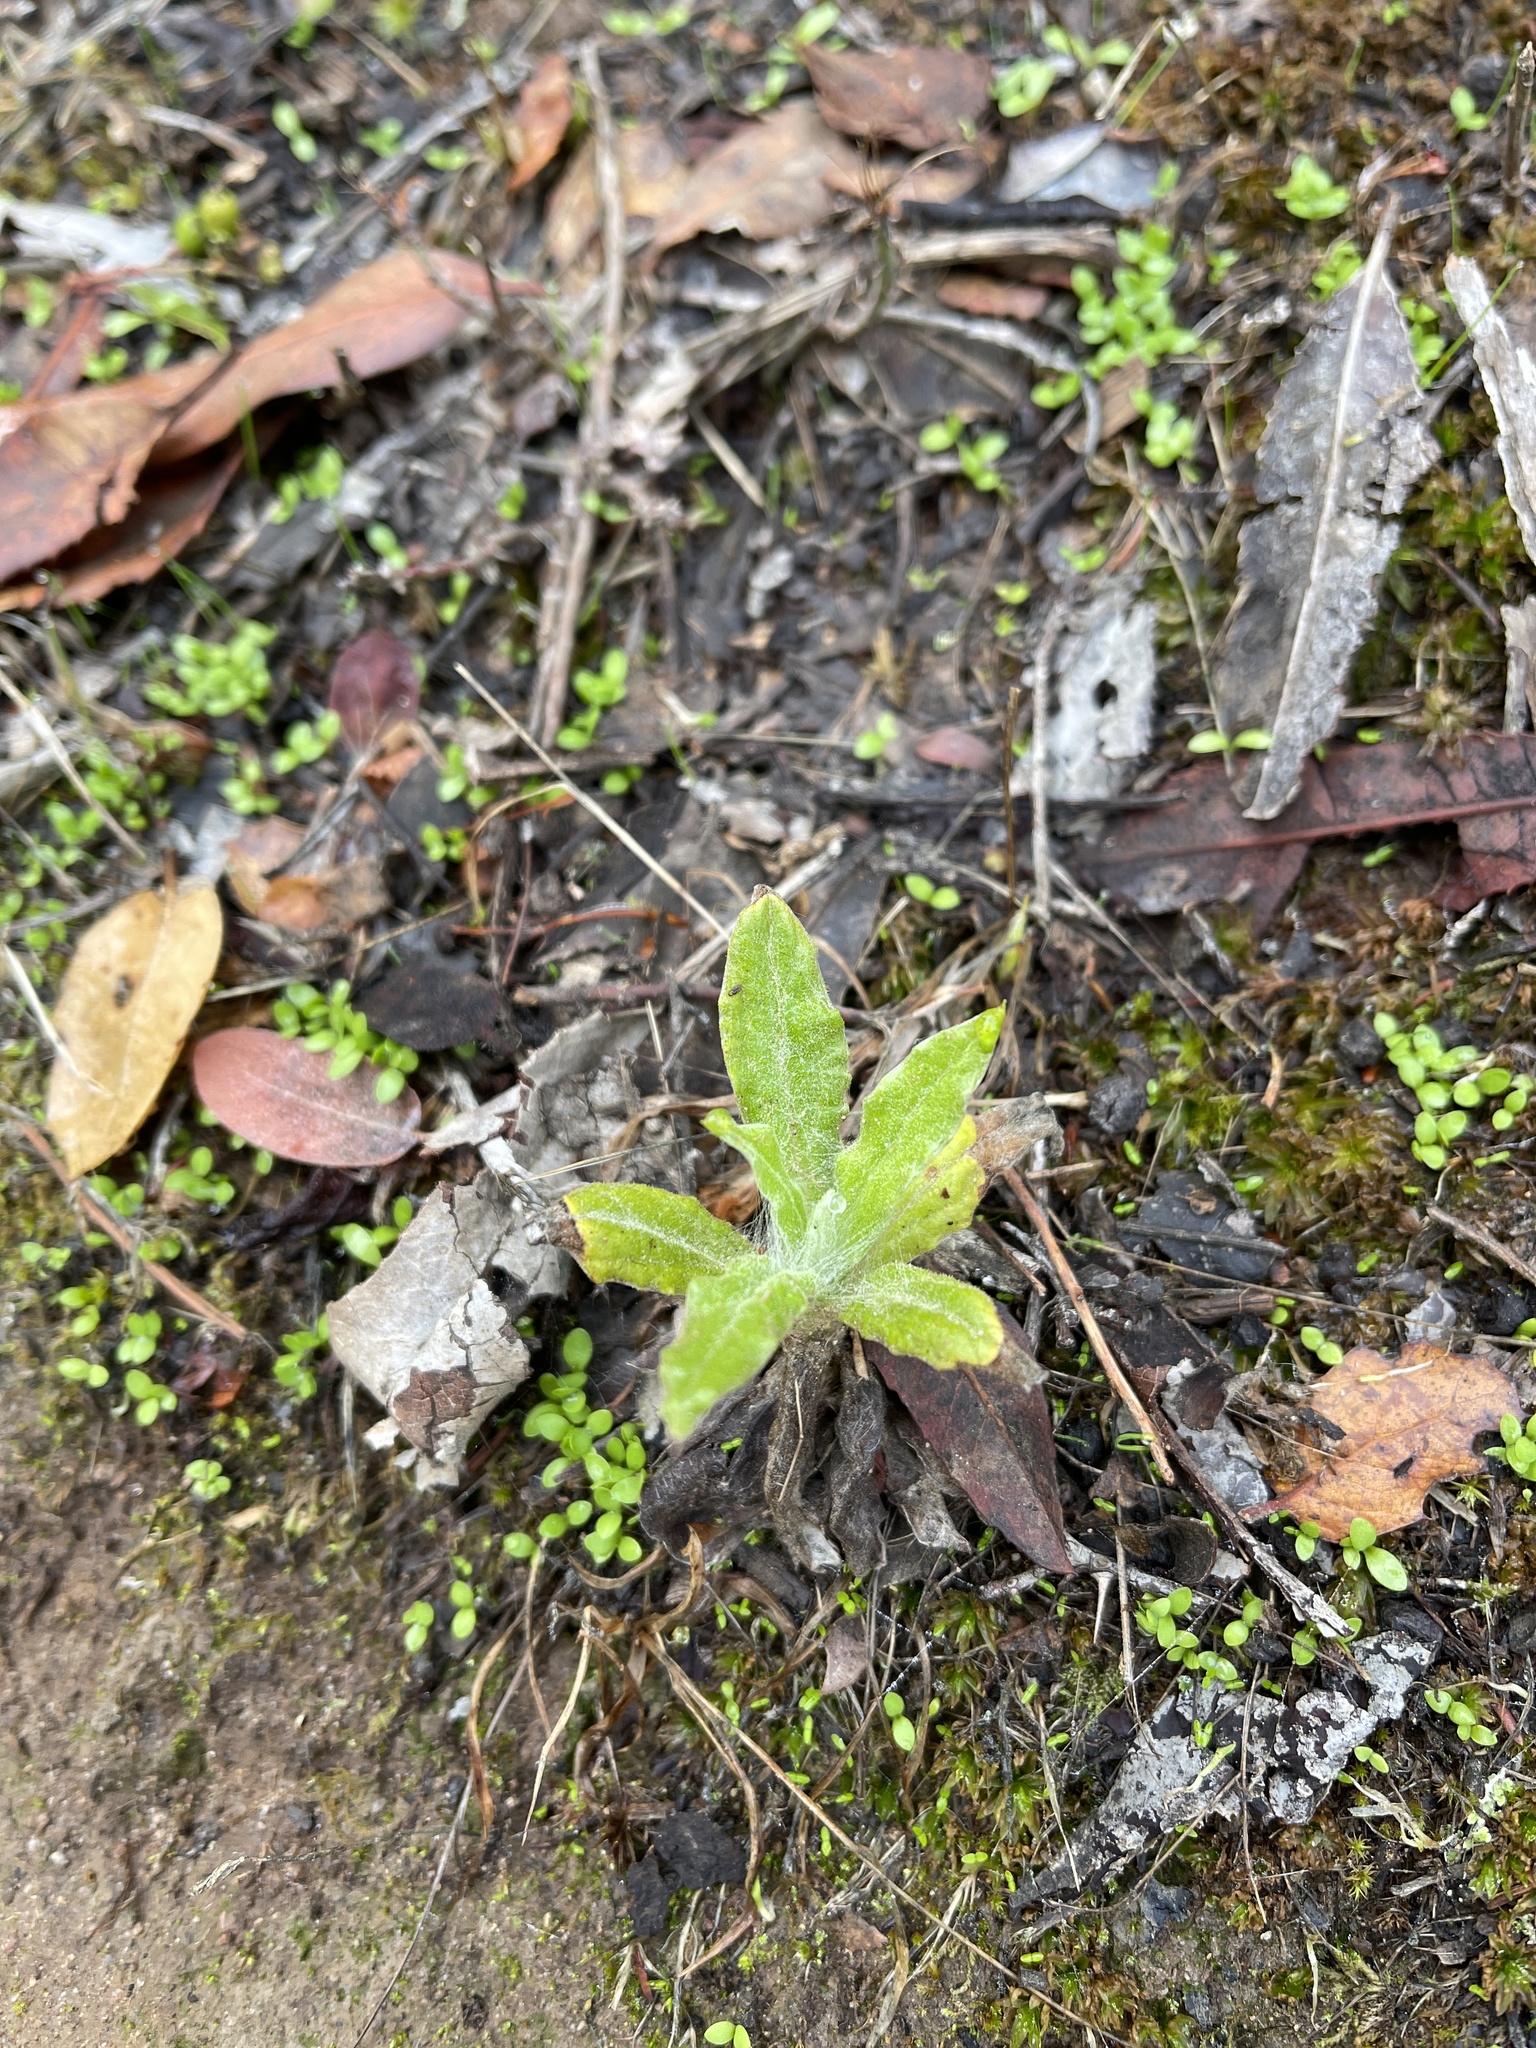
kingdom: Plantae
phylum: Tracheophyta
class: Magnoliopsida
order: Asterales
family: Asteraceae
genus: Pseudognaphalium
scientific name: Pseudognaphalium californicum
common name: California rabbit-tobacco
